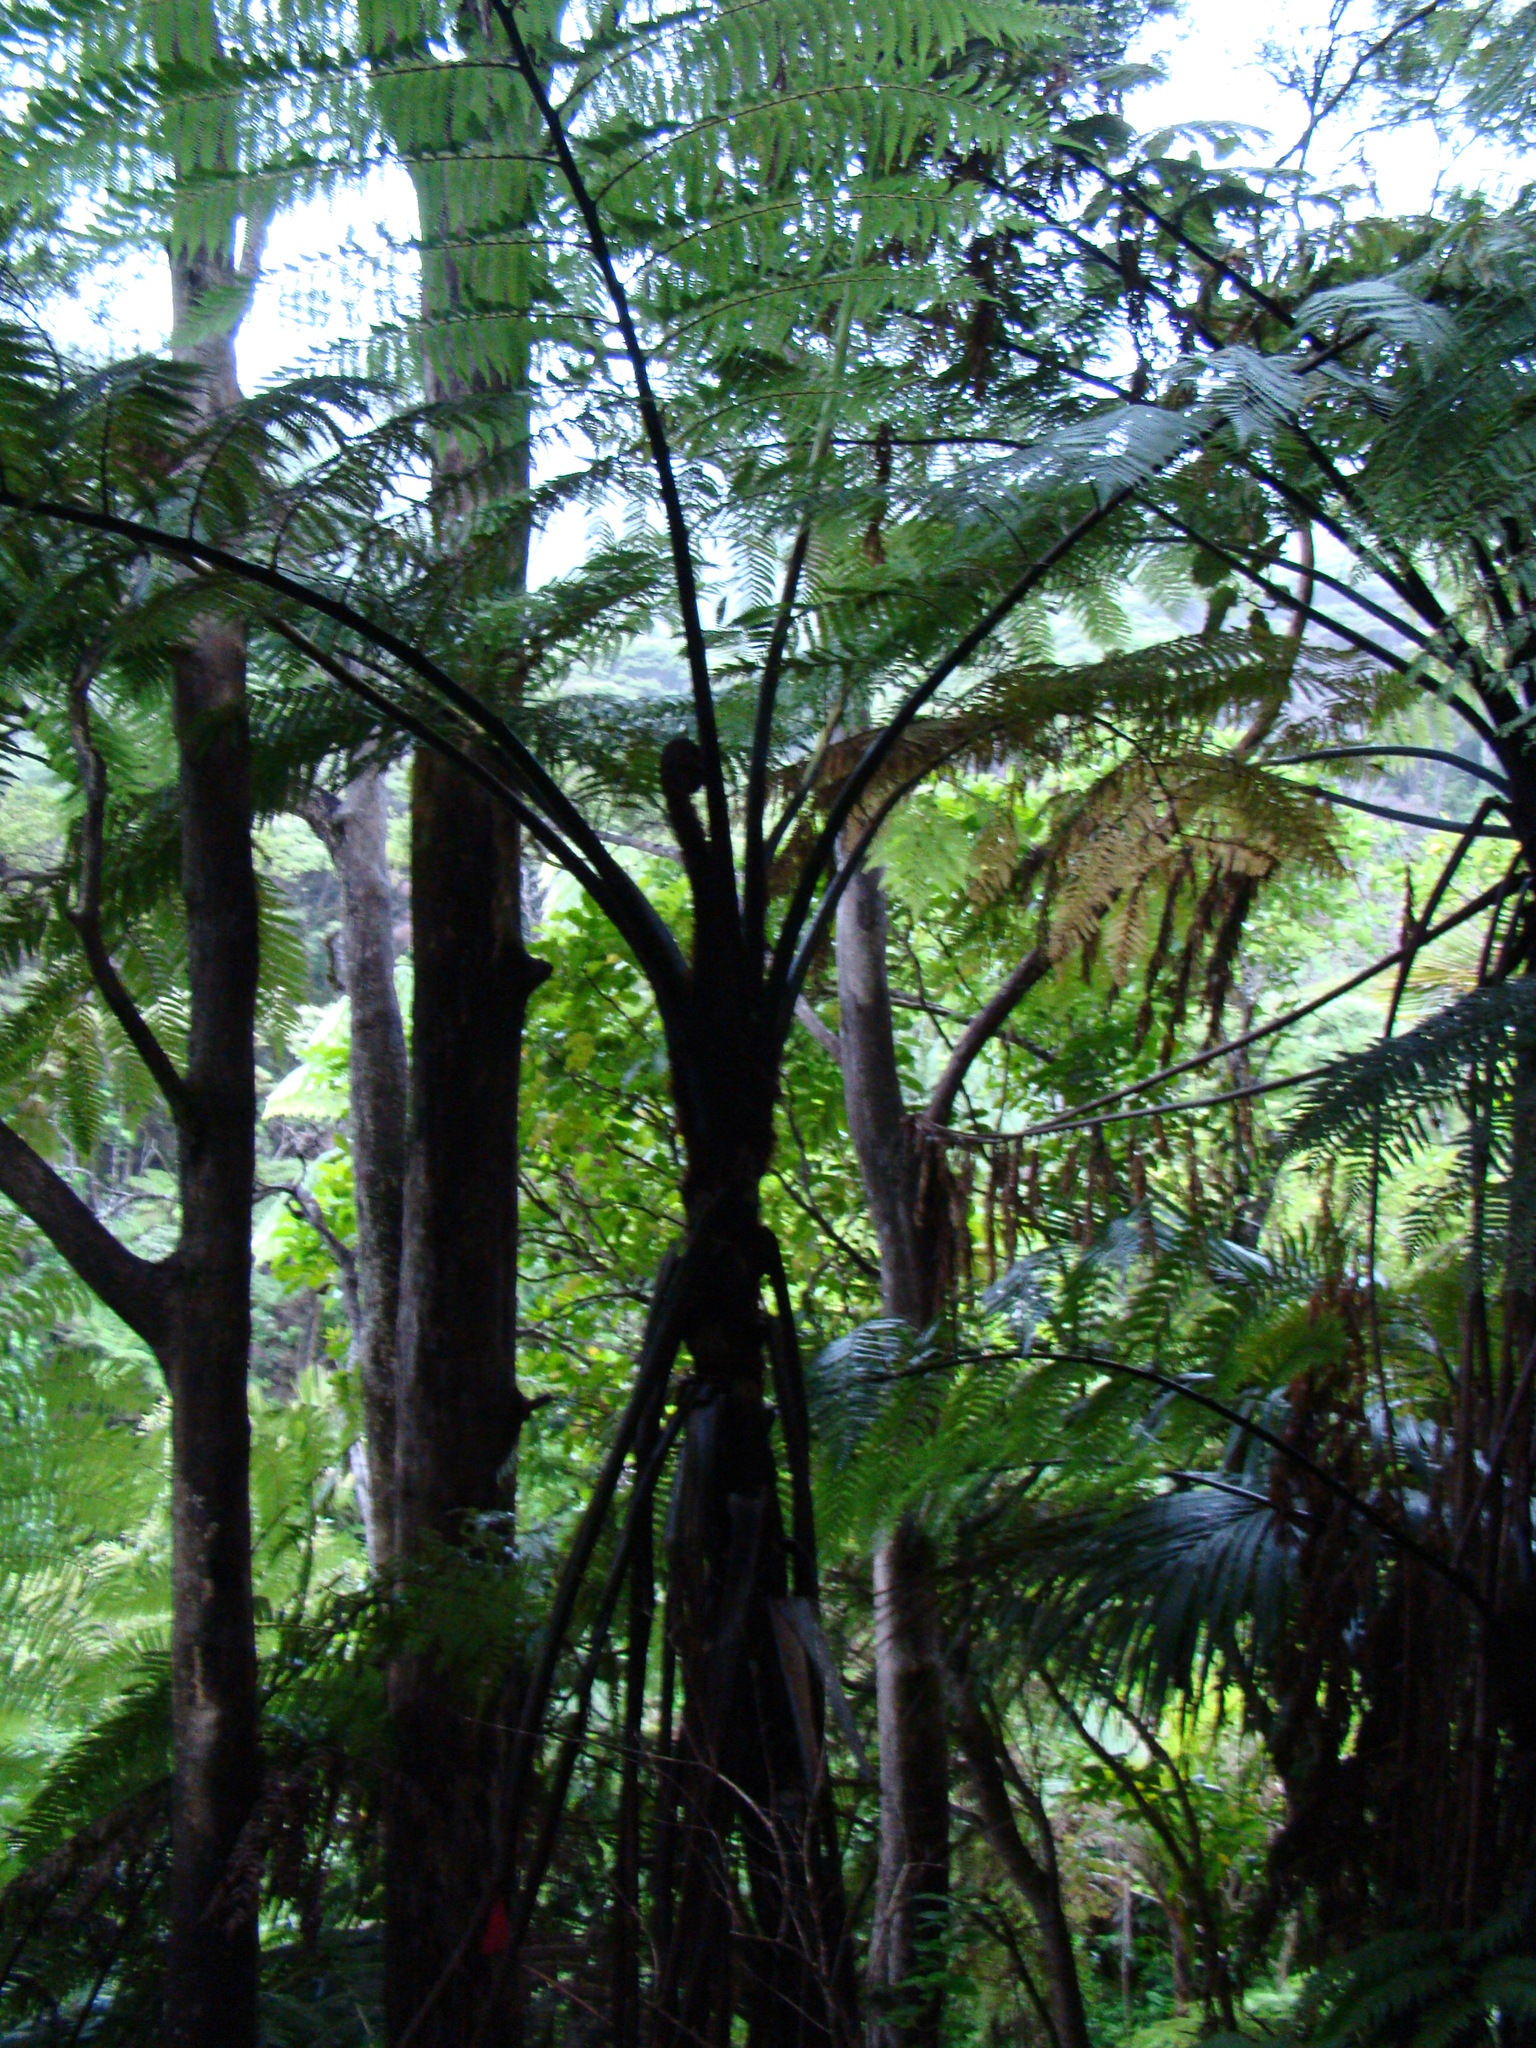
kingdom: Plantae
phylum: Tracheophyta
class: Polypodiopsida
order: Cyatheales
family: Cyatheaceae
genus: Sphaeropteris
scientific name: Sphaeropteris medullaris
